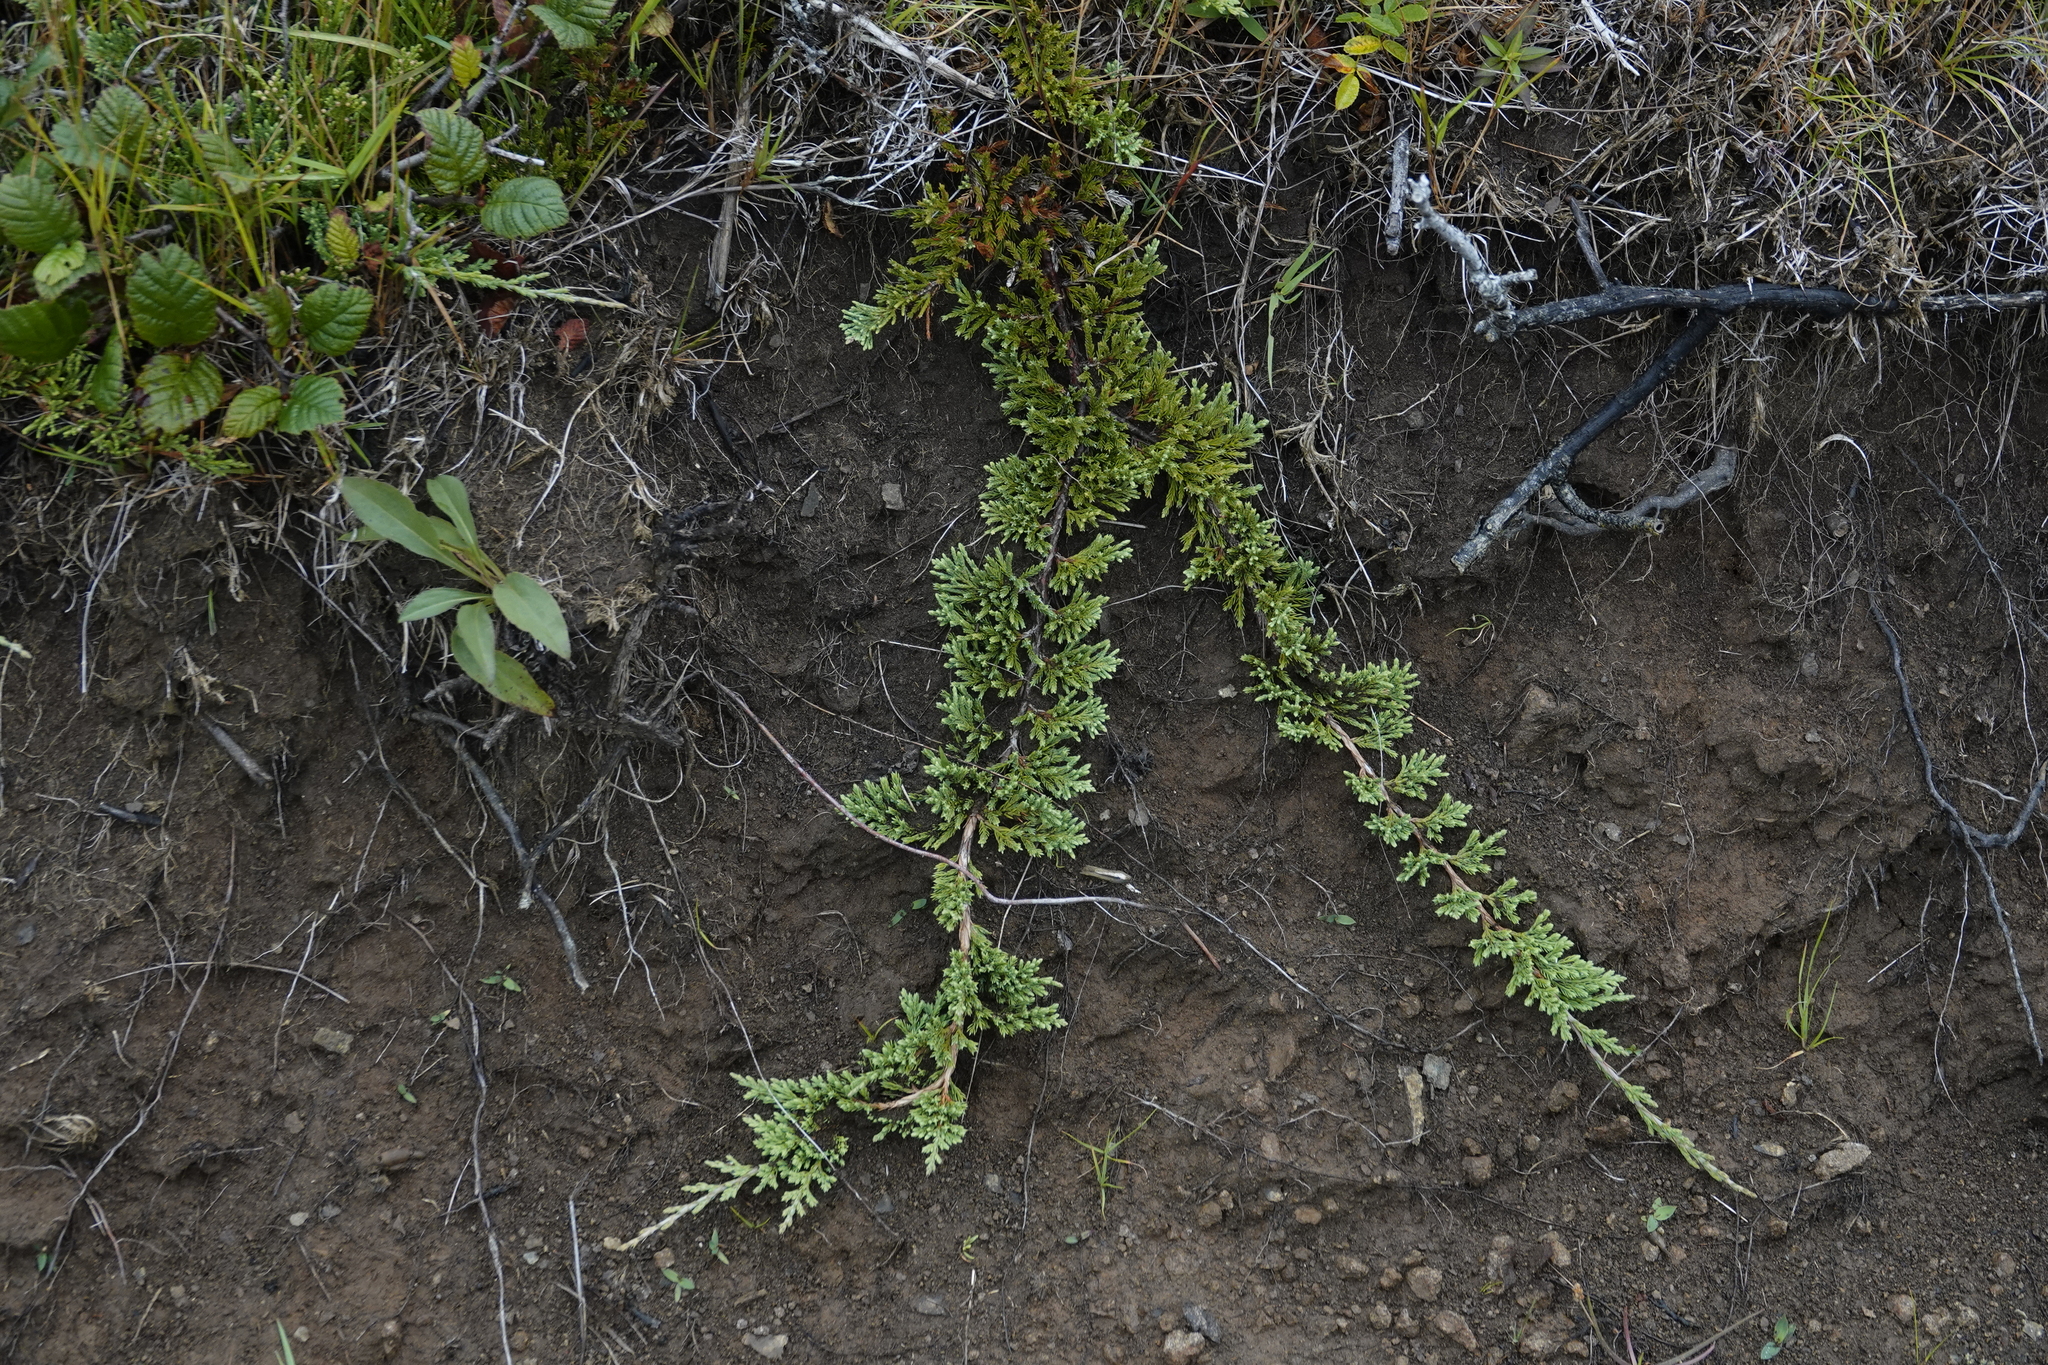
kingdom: Plantae
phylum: Tracheophyta
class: Pinopsida
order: Pinales
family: Cupressaceae
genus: Juniperus
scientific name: Juniperus horizontalis
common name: Creeping juniper
